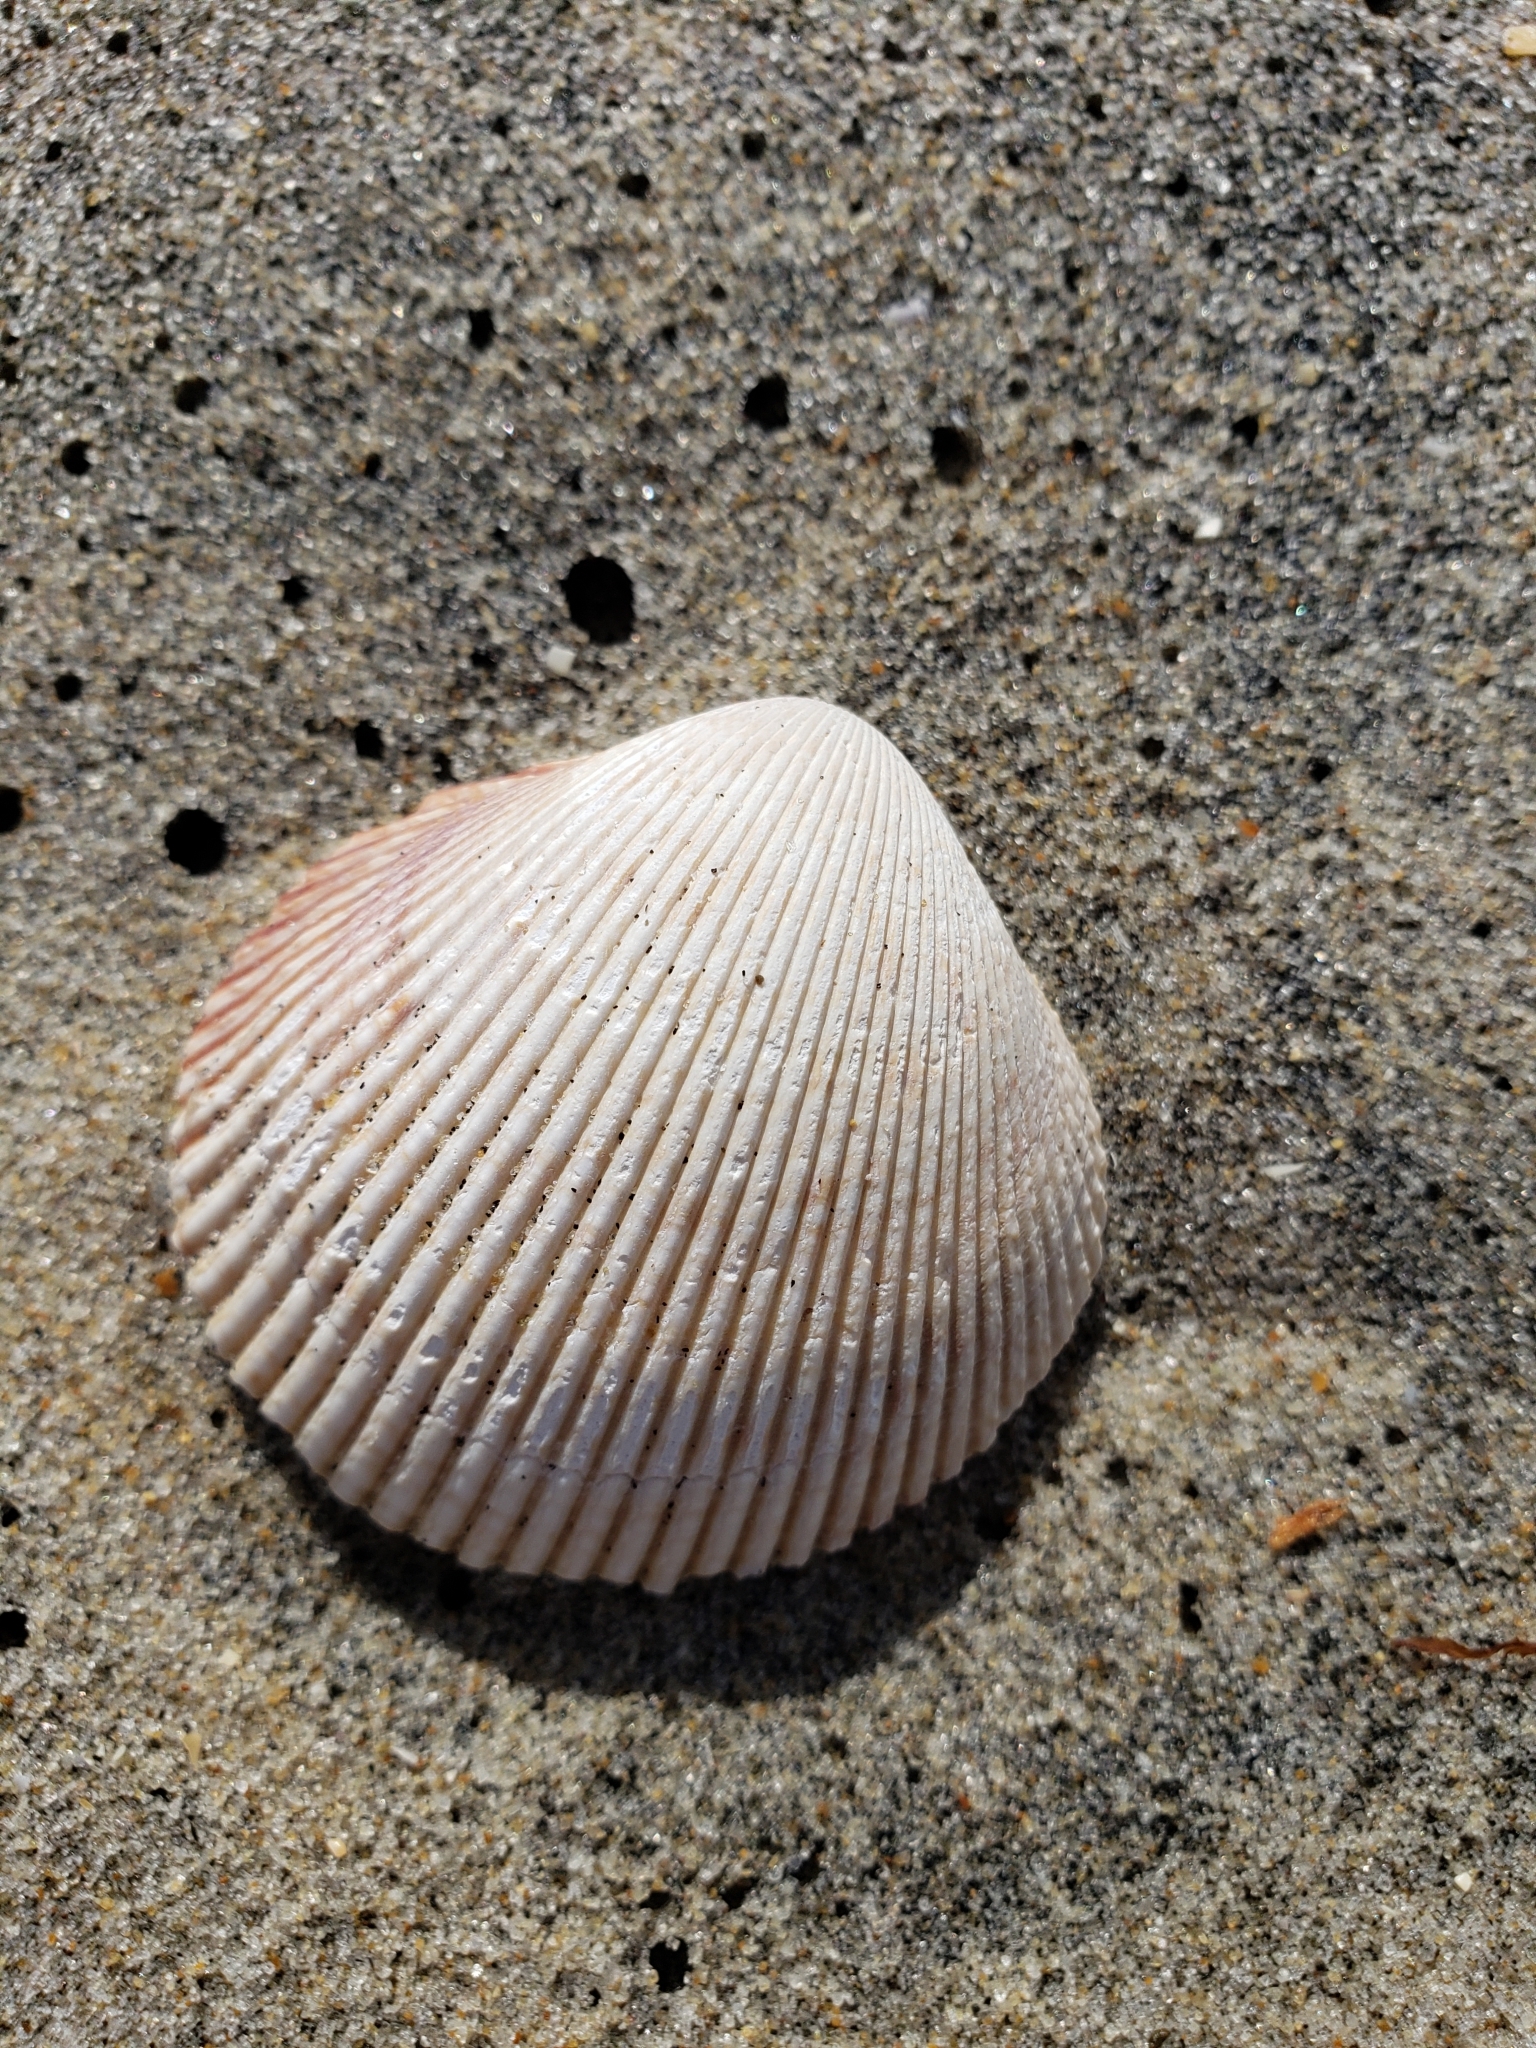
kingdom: Animalia
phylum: Mollusca
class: Bivalvia
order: Cardiida
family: Cardiidae
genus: Dallocardia
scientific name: Dallocardia quadragenaria
